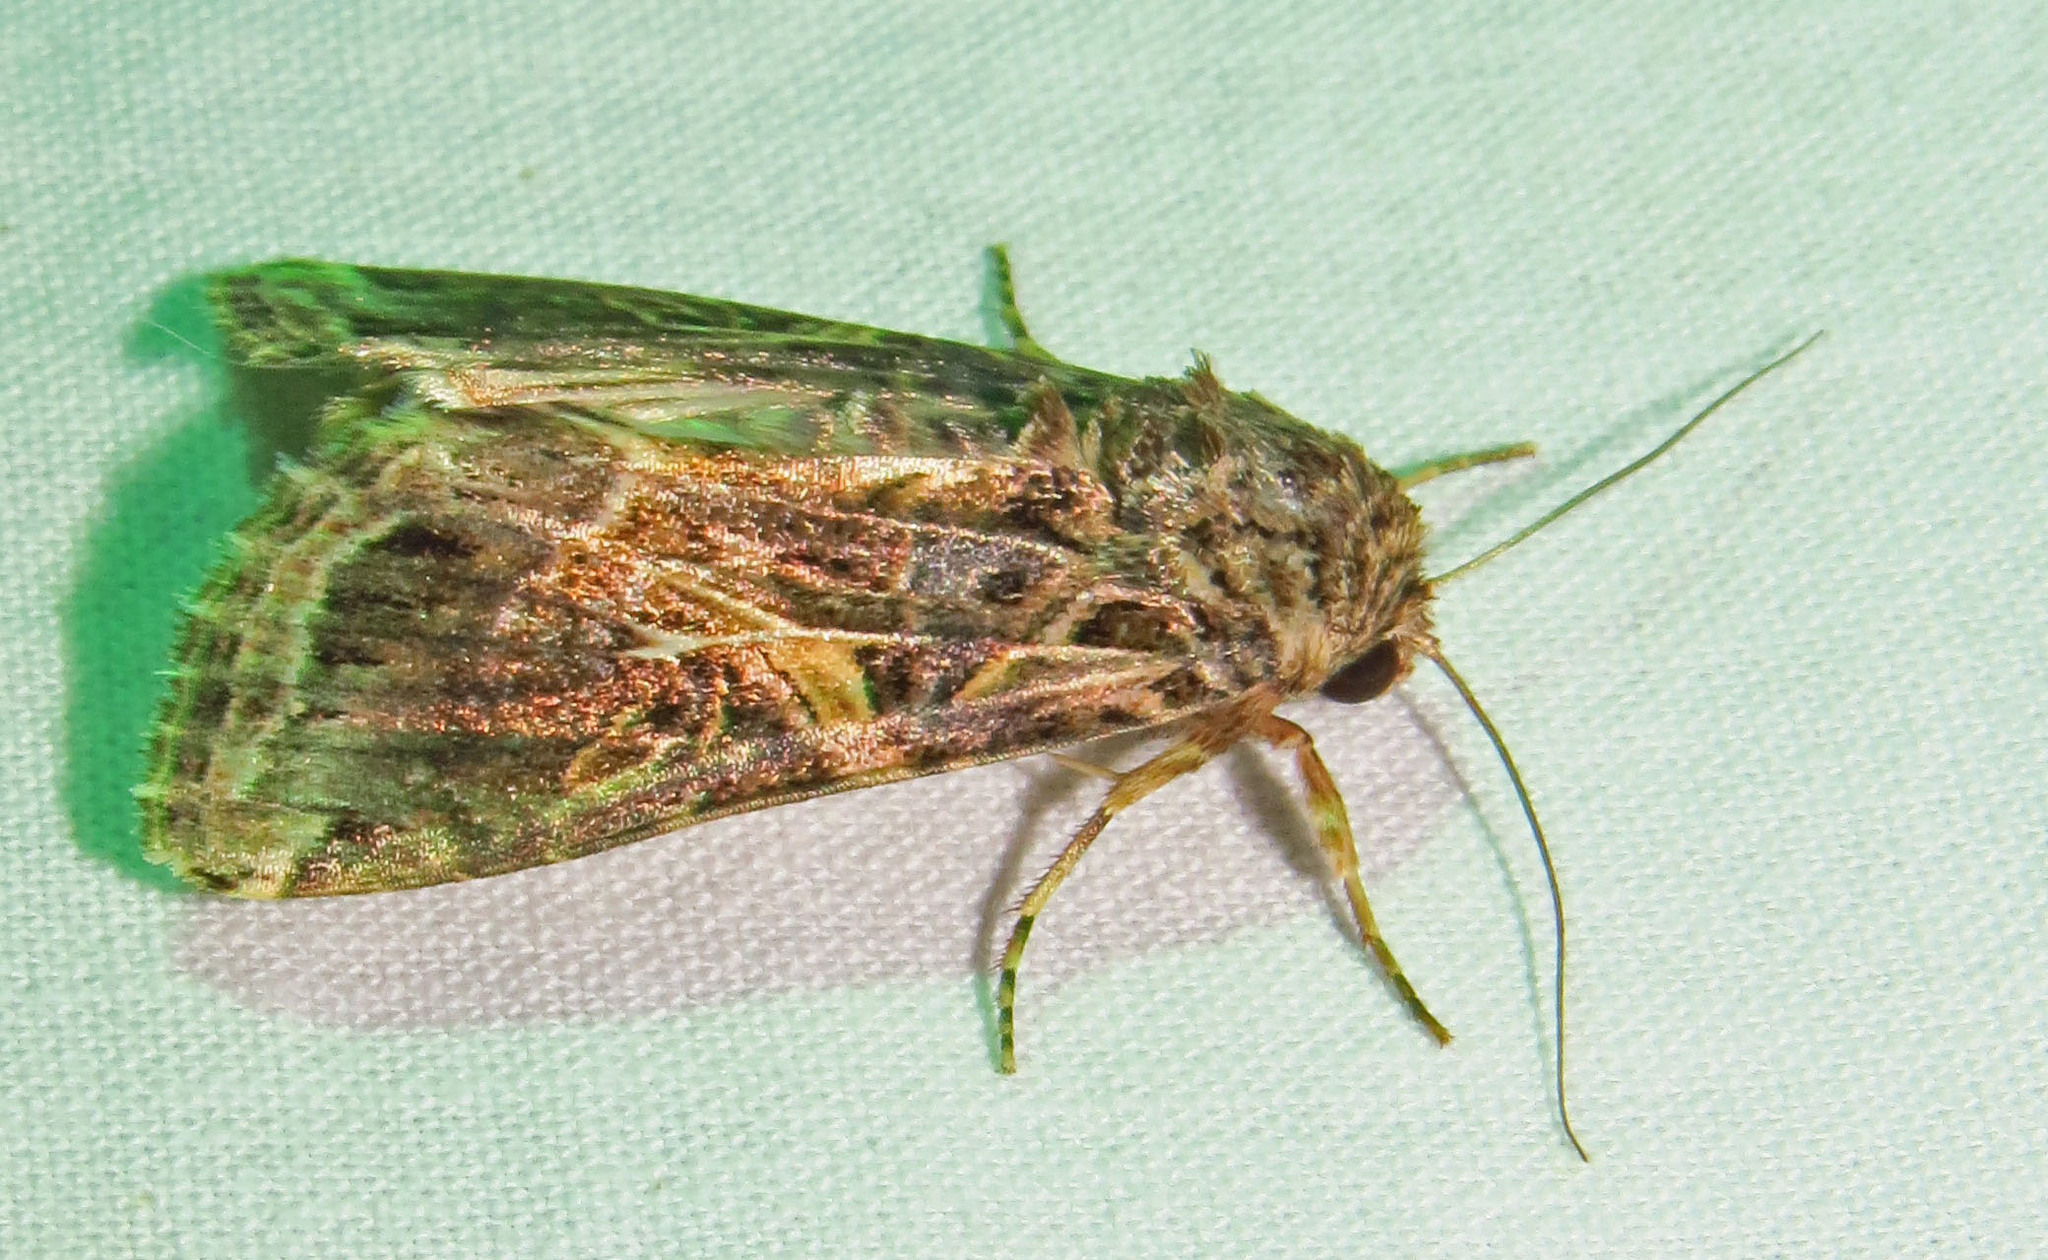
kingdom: Animalia
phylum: Arthropoda
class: Insecta
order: Lepidoptera
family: Noctuidae
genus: Spodoptera
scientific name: Spodoptera ornithogalli
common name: Yellow-striped armyworm
